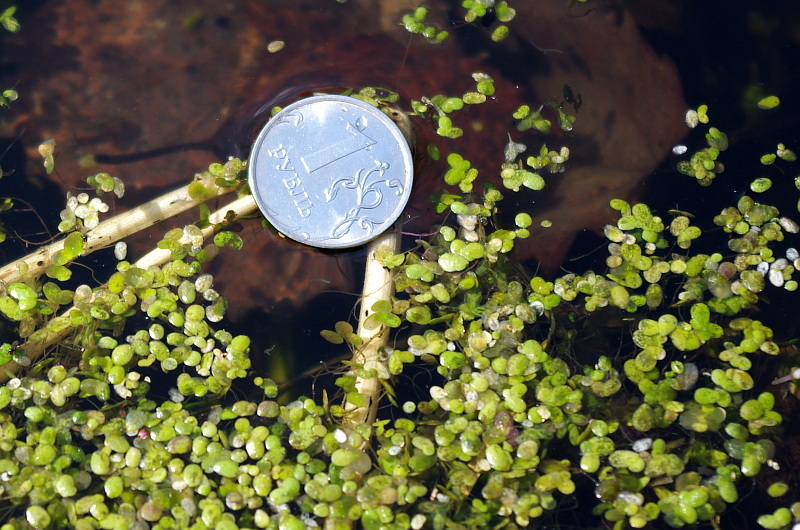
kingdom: Plantae
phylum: Tracheophyta
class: Liliopsida
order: Alismatales
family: Araceae
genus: Lemna
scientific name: Lemna minor
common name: Common duckweed
